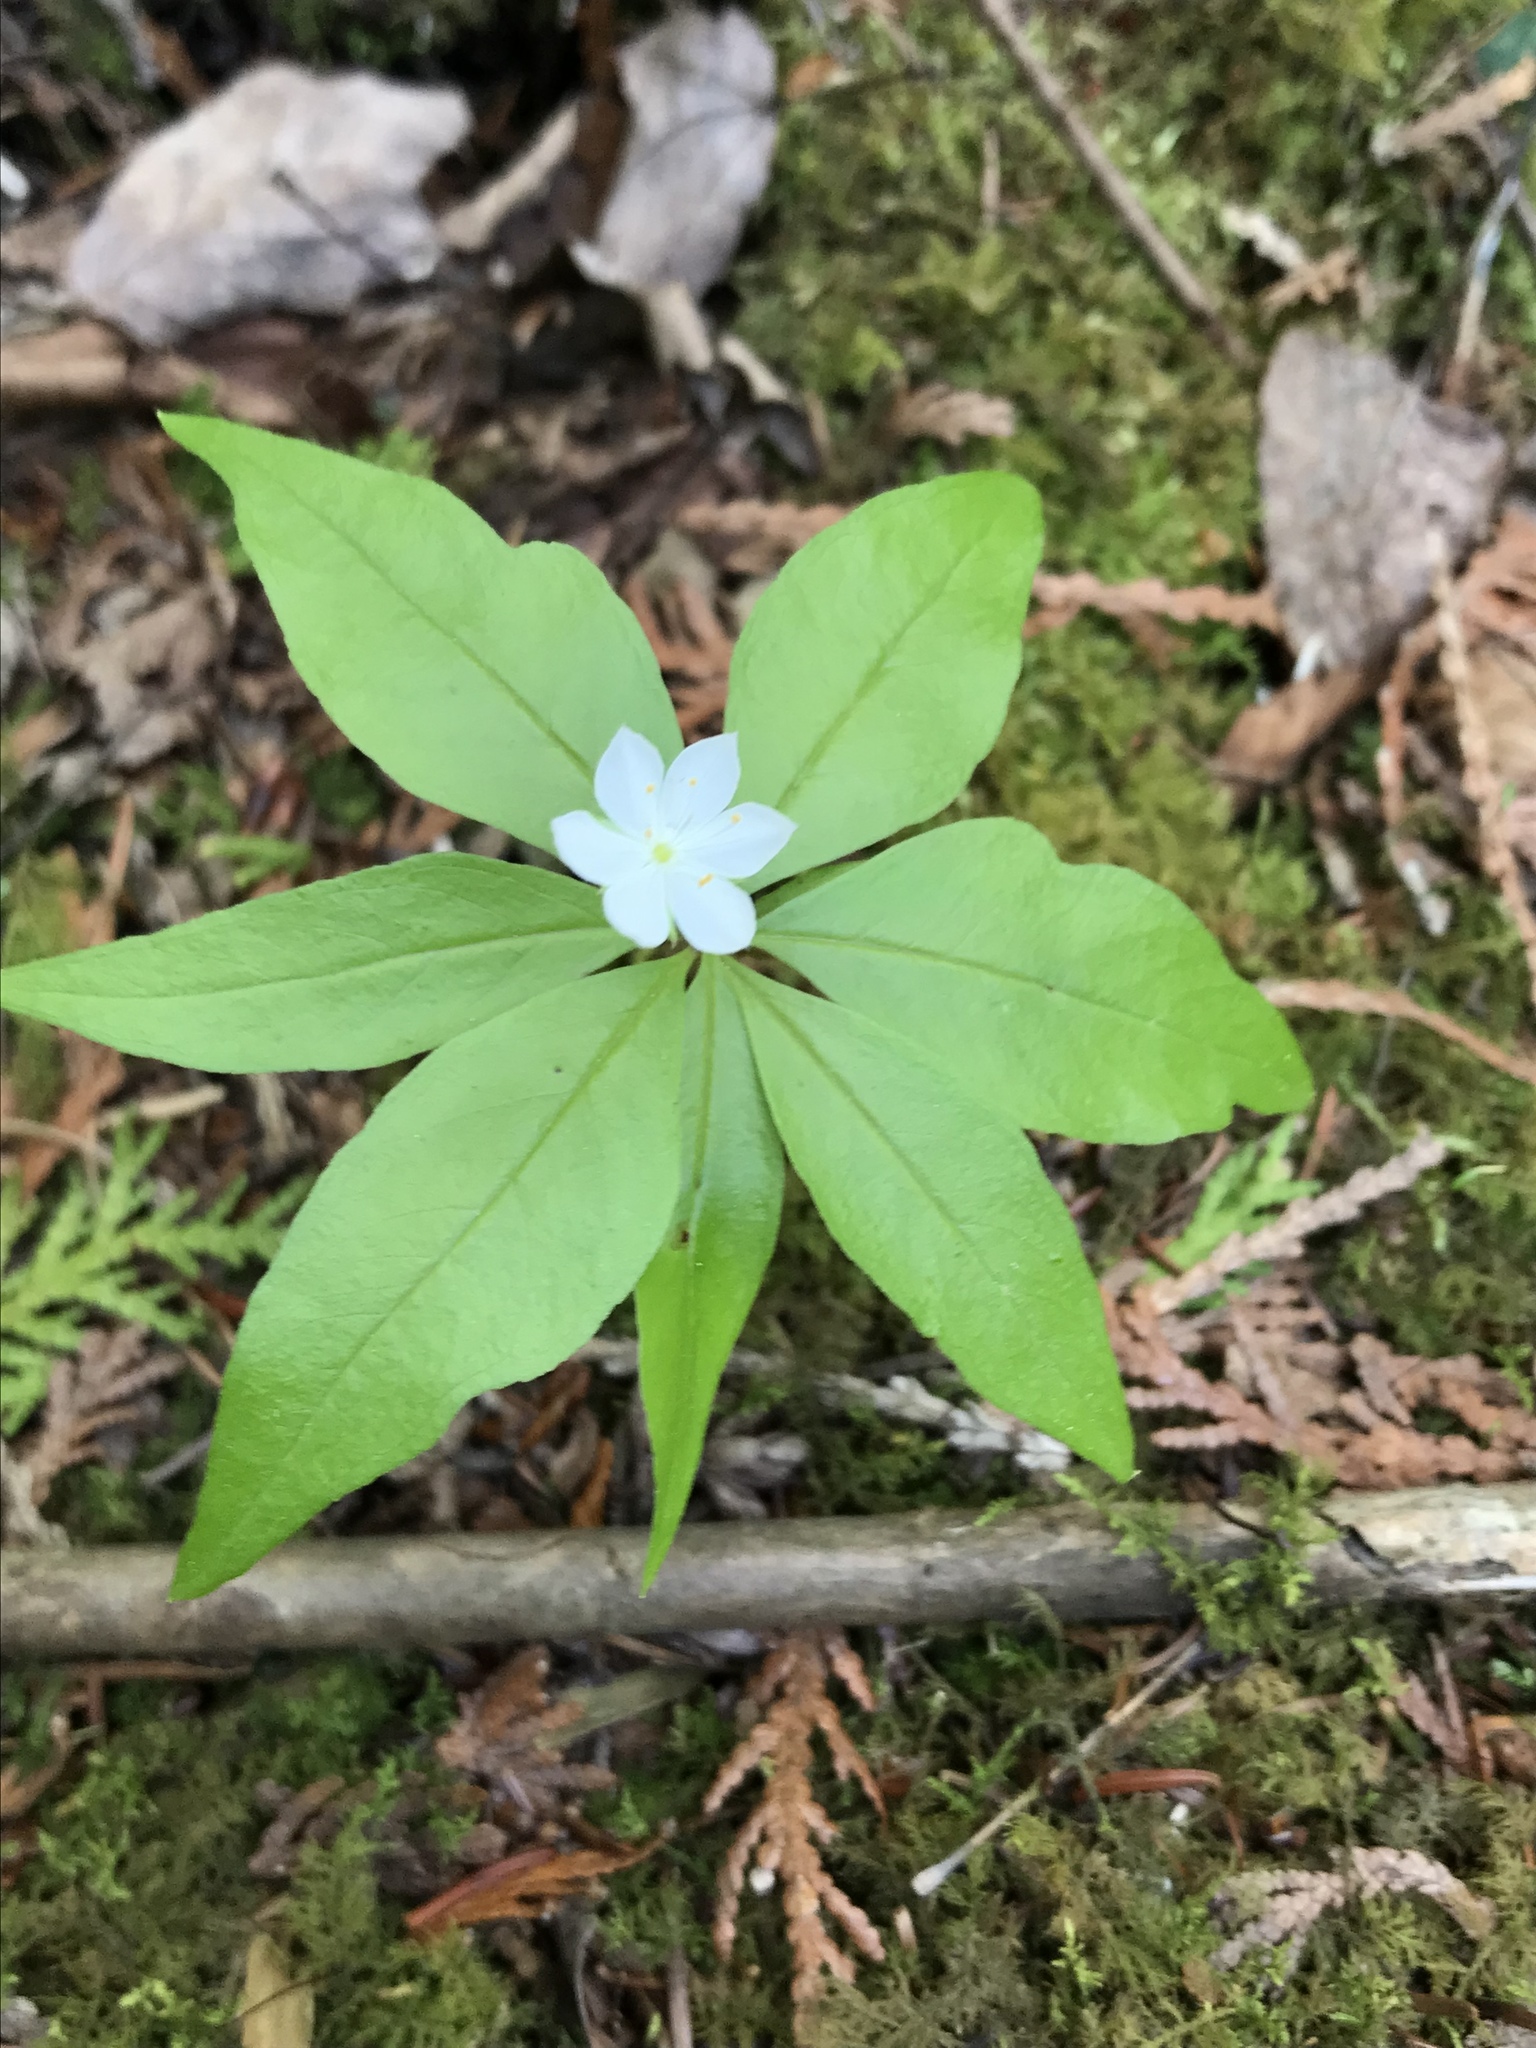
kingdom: Plantae
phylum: Tracheophyta
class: Magnoliopsida
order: Ericales
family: Primulaceae
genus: Lysimachia
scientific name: Lysimachia borealis
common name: American starflower
